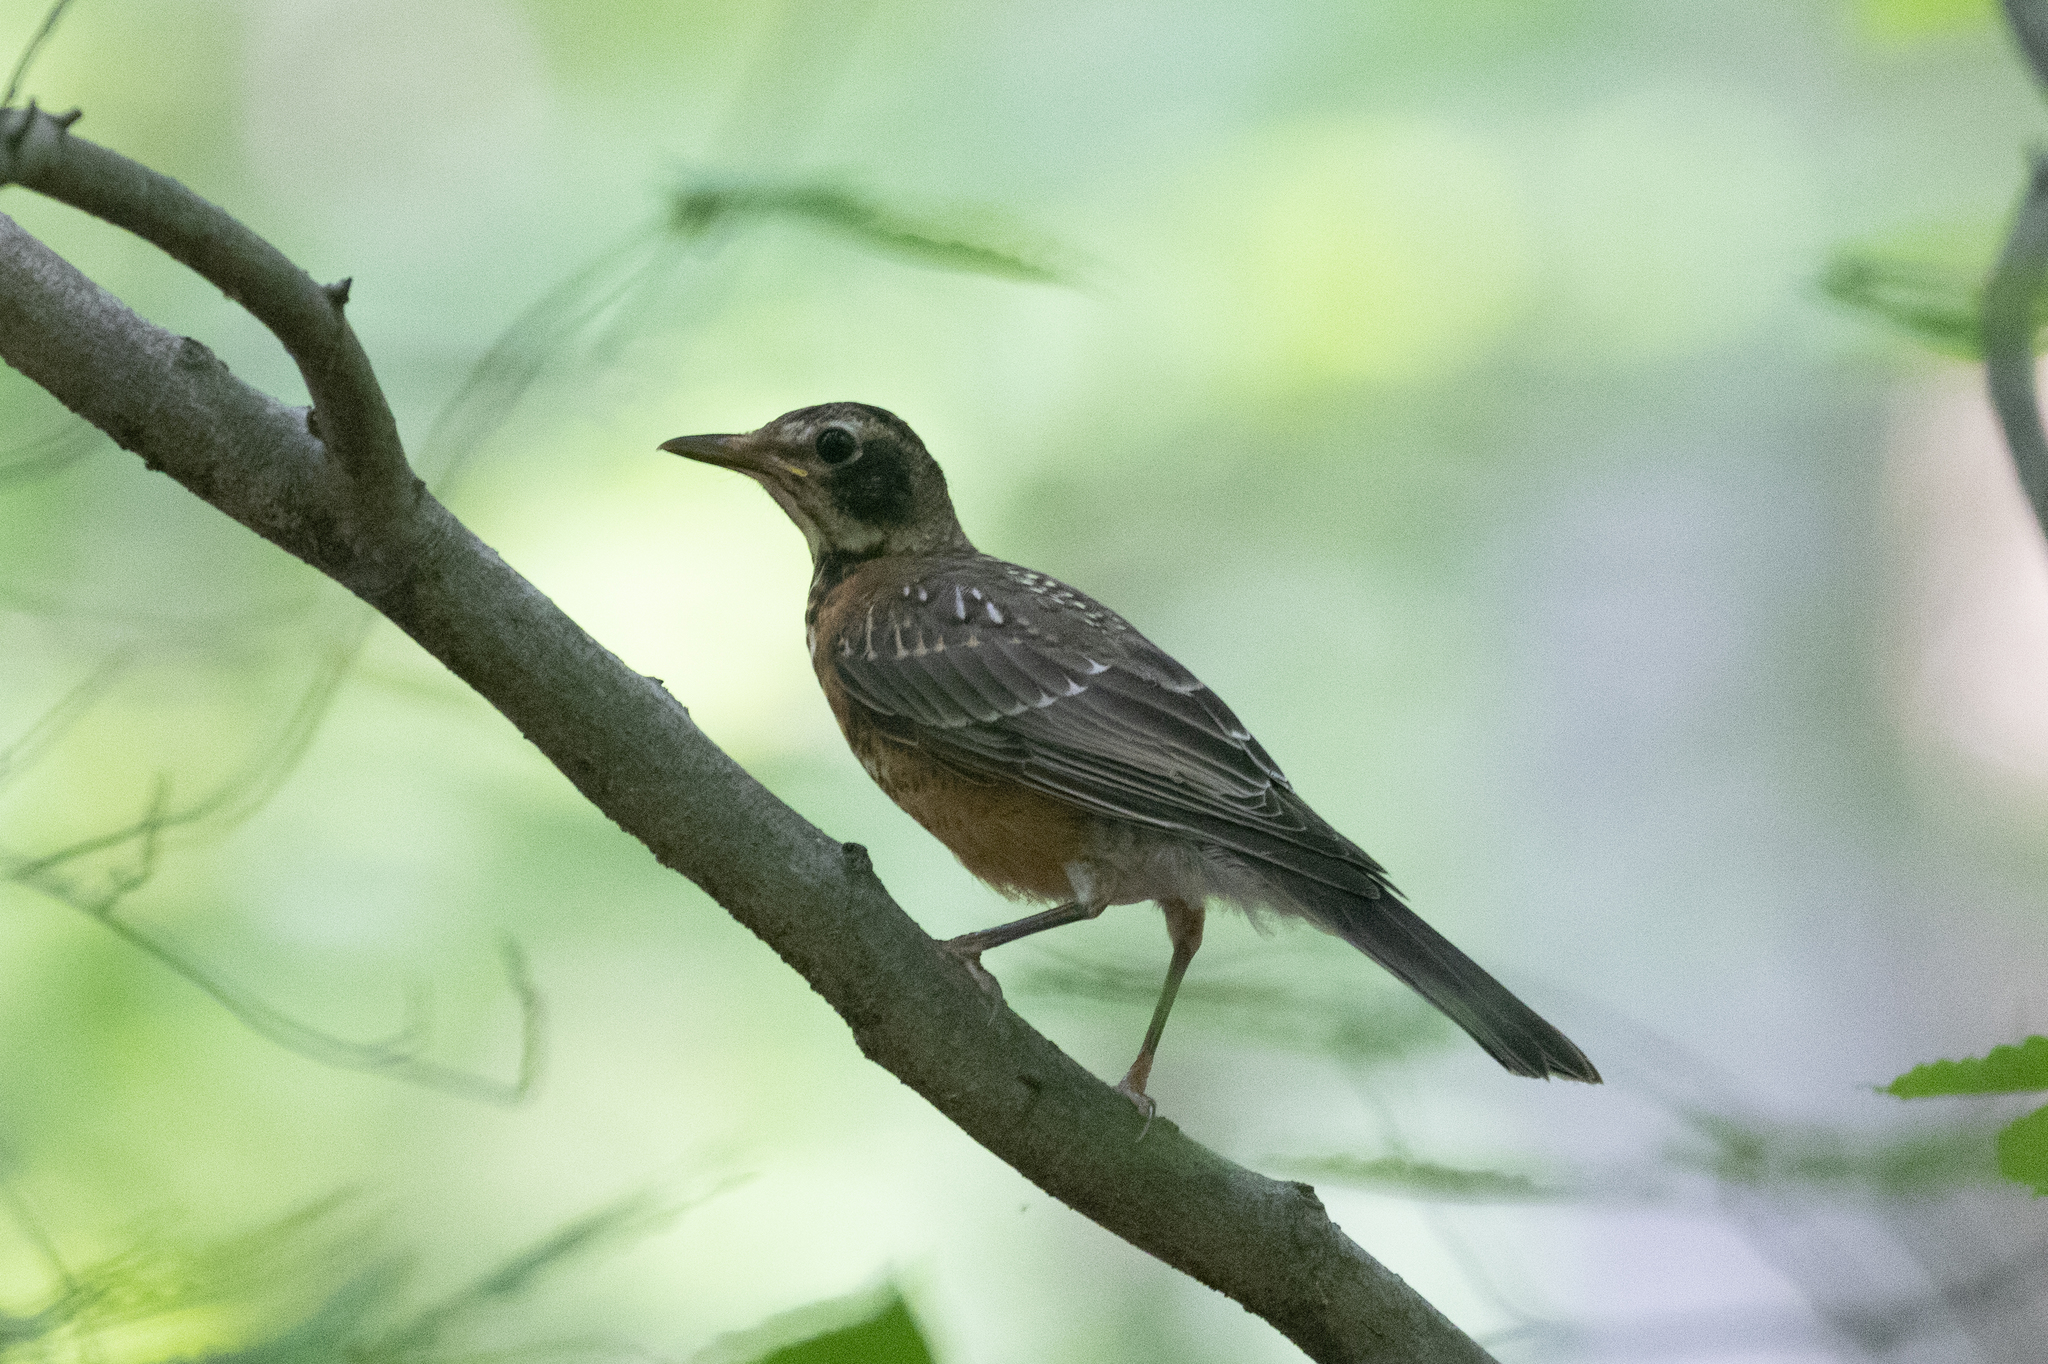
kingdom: Animalia
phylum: Chordata
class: Aves
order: Passeriformes
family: Turdidae
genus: Turdus
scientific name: Turdus migratorius
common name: American robin
